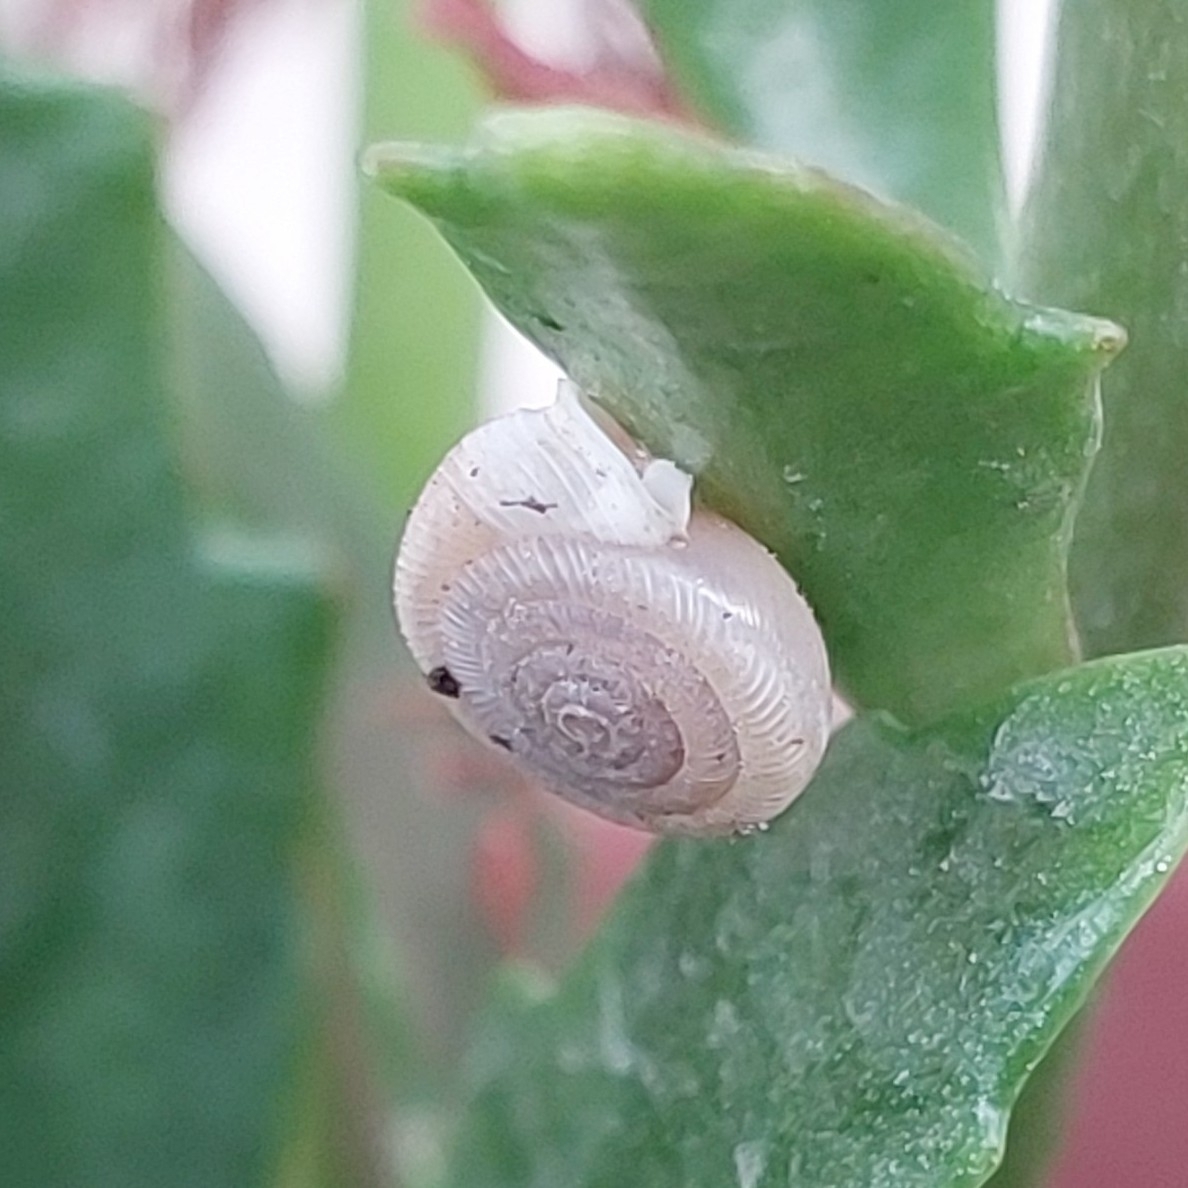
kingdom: Animalia
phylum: Mollusca
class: Gastropoda
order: Stylommatophora
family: Polygyridae
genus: Polygyra
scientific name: Polygyra cereolus
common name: Southern flatcone snail
